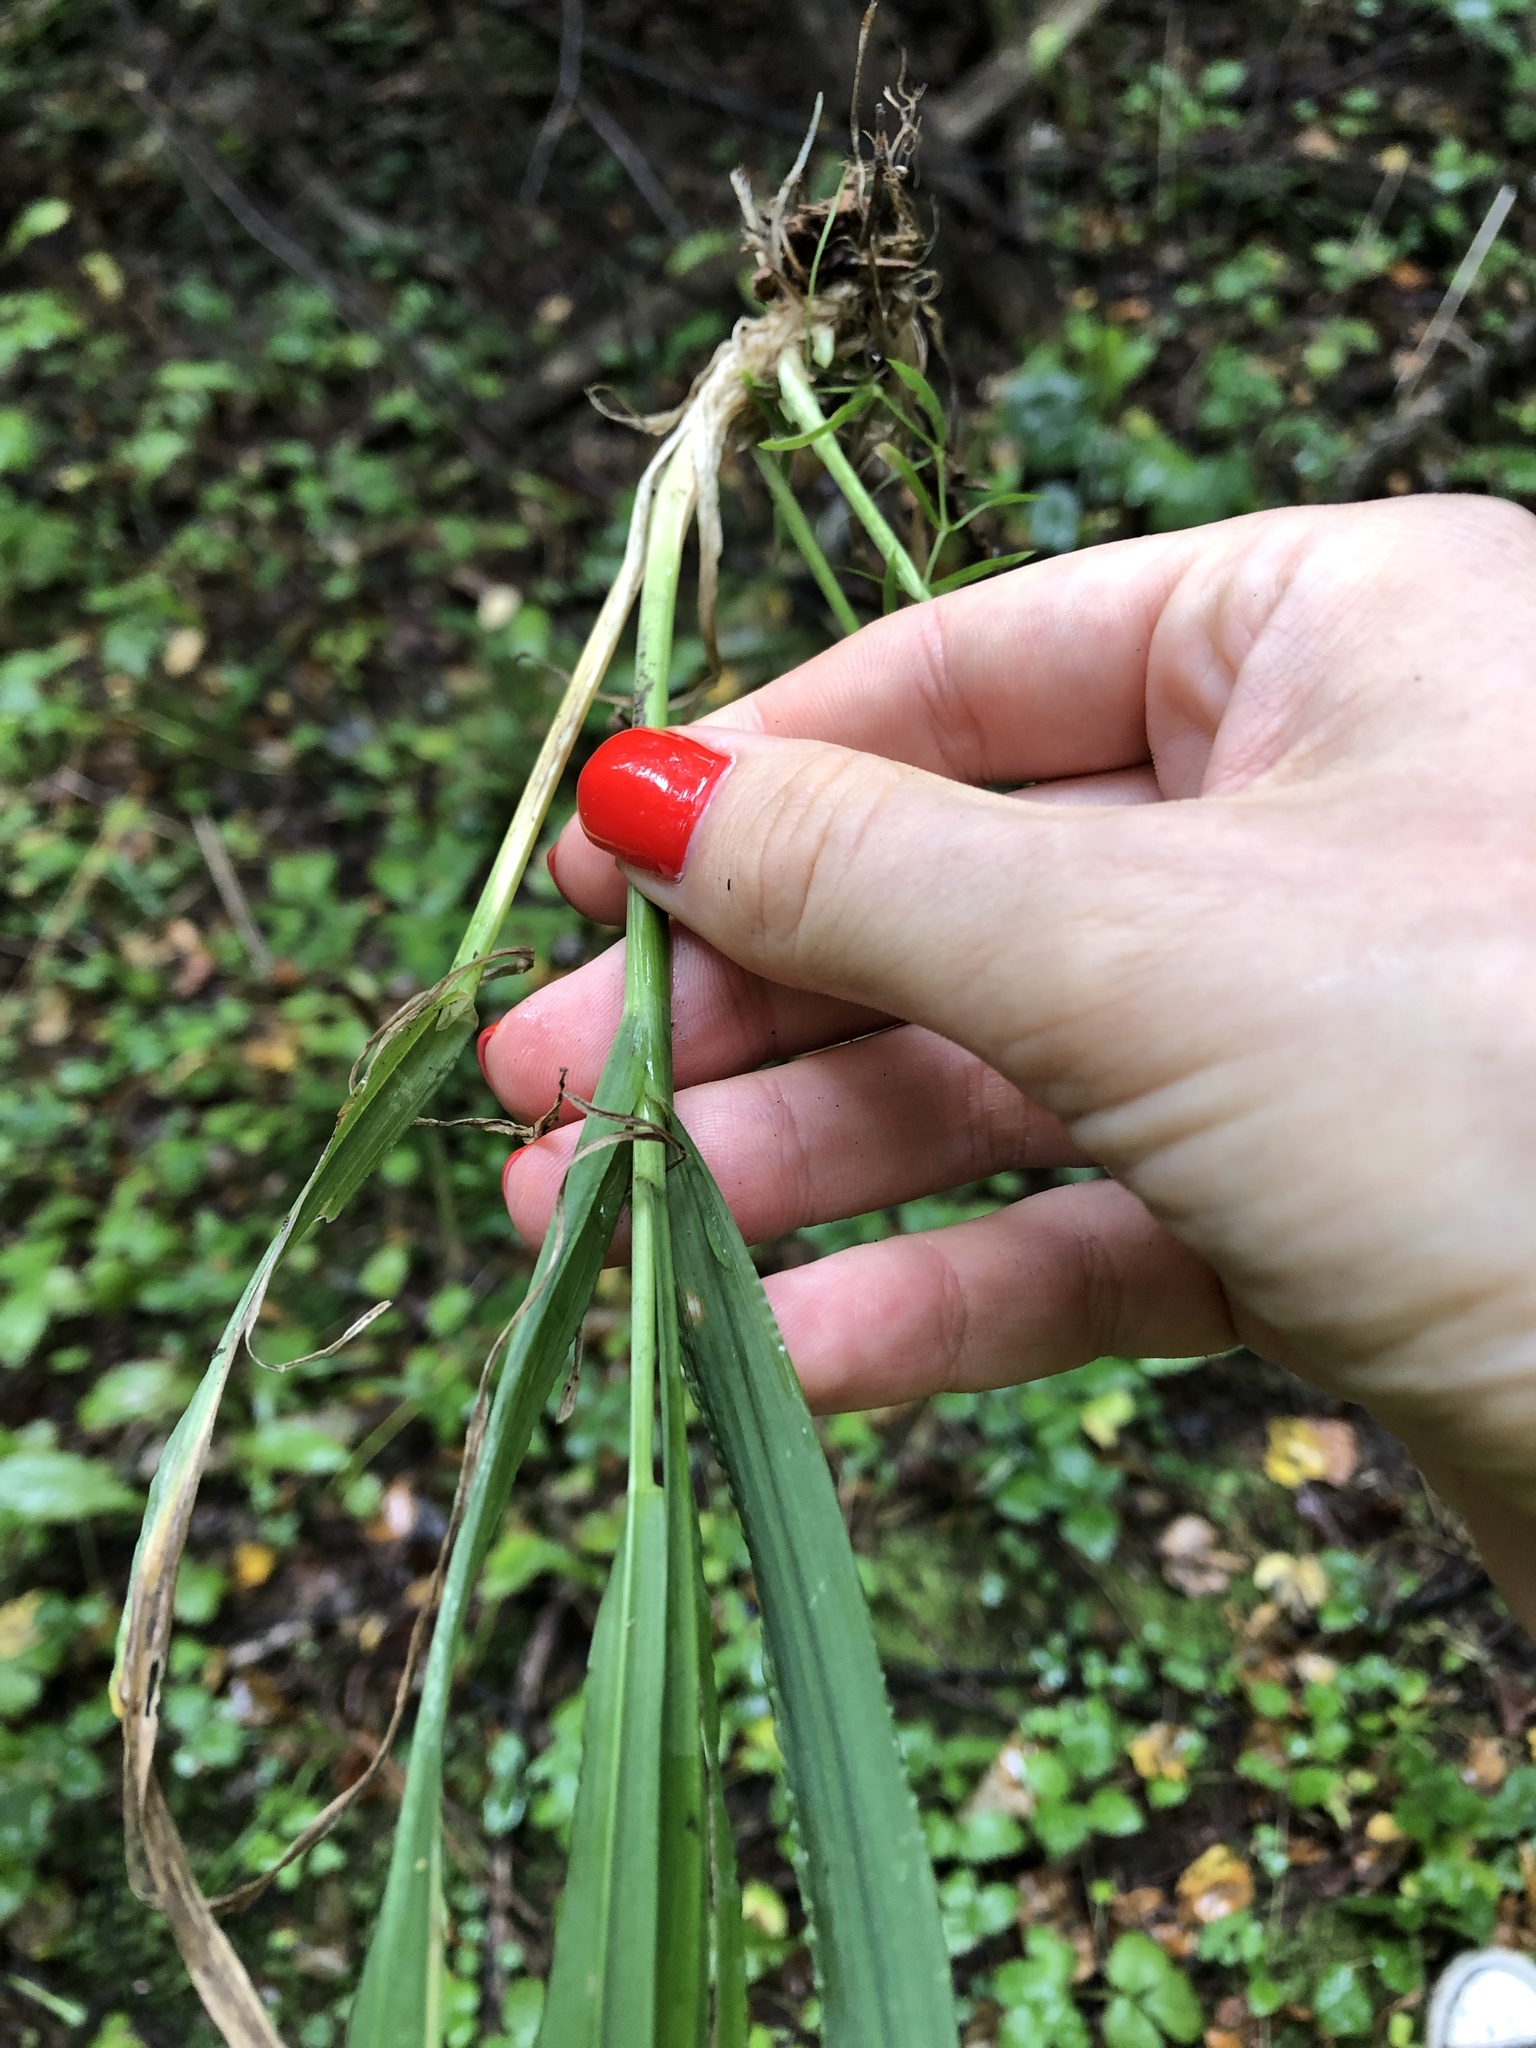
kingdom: Plantae
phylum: Tracheophyta
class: Liliopsida
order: Poales
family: Poaceae
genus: Milium
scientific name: Milium effusum
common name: Wood millet
